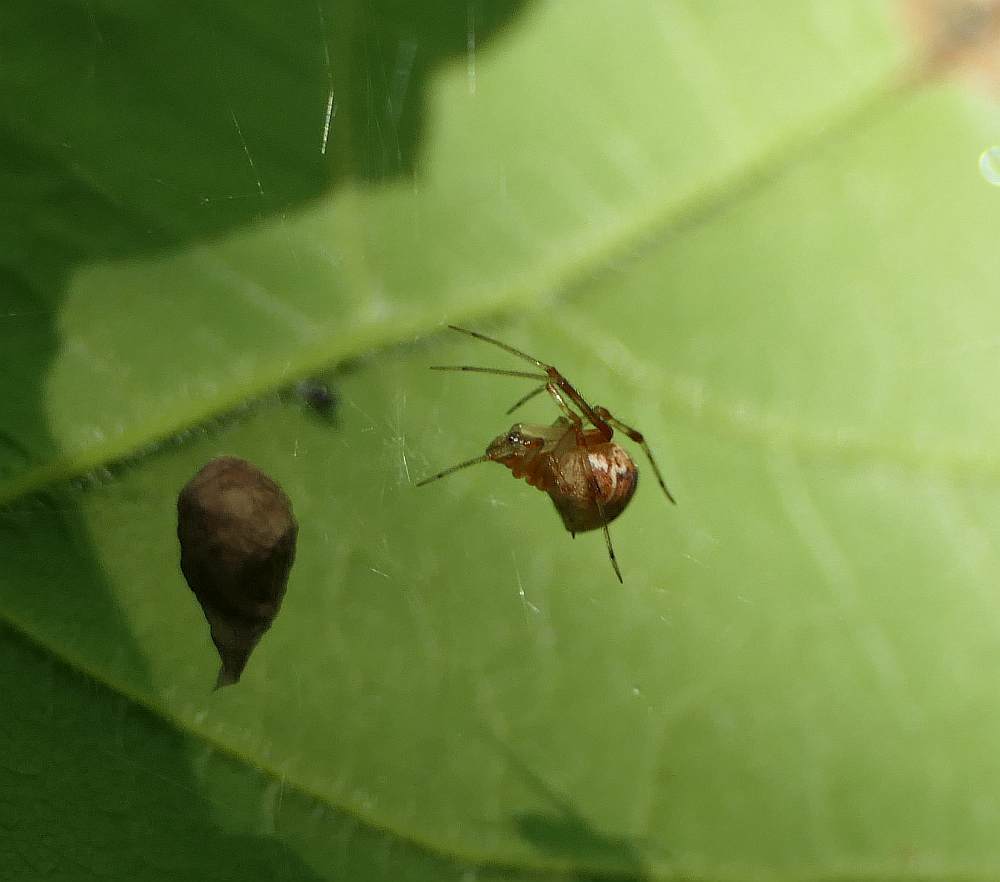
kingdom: Animalia
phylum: Arthropoda
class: Arachnida
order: Araneae
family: Theridiidae
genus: Parasteatoda
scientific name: Parasteatoda tepidariorum
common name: Common house spider
